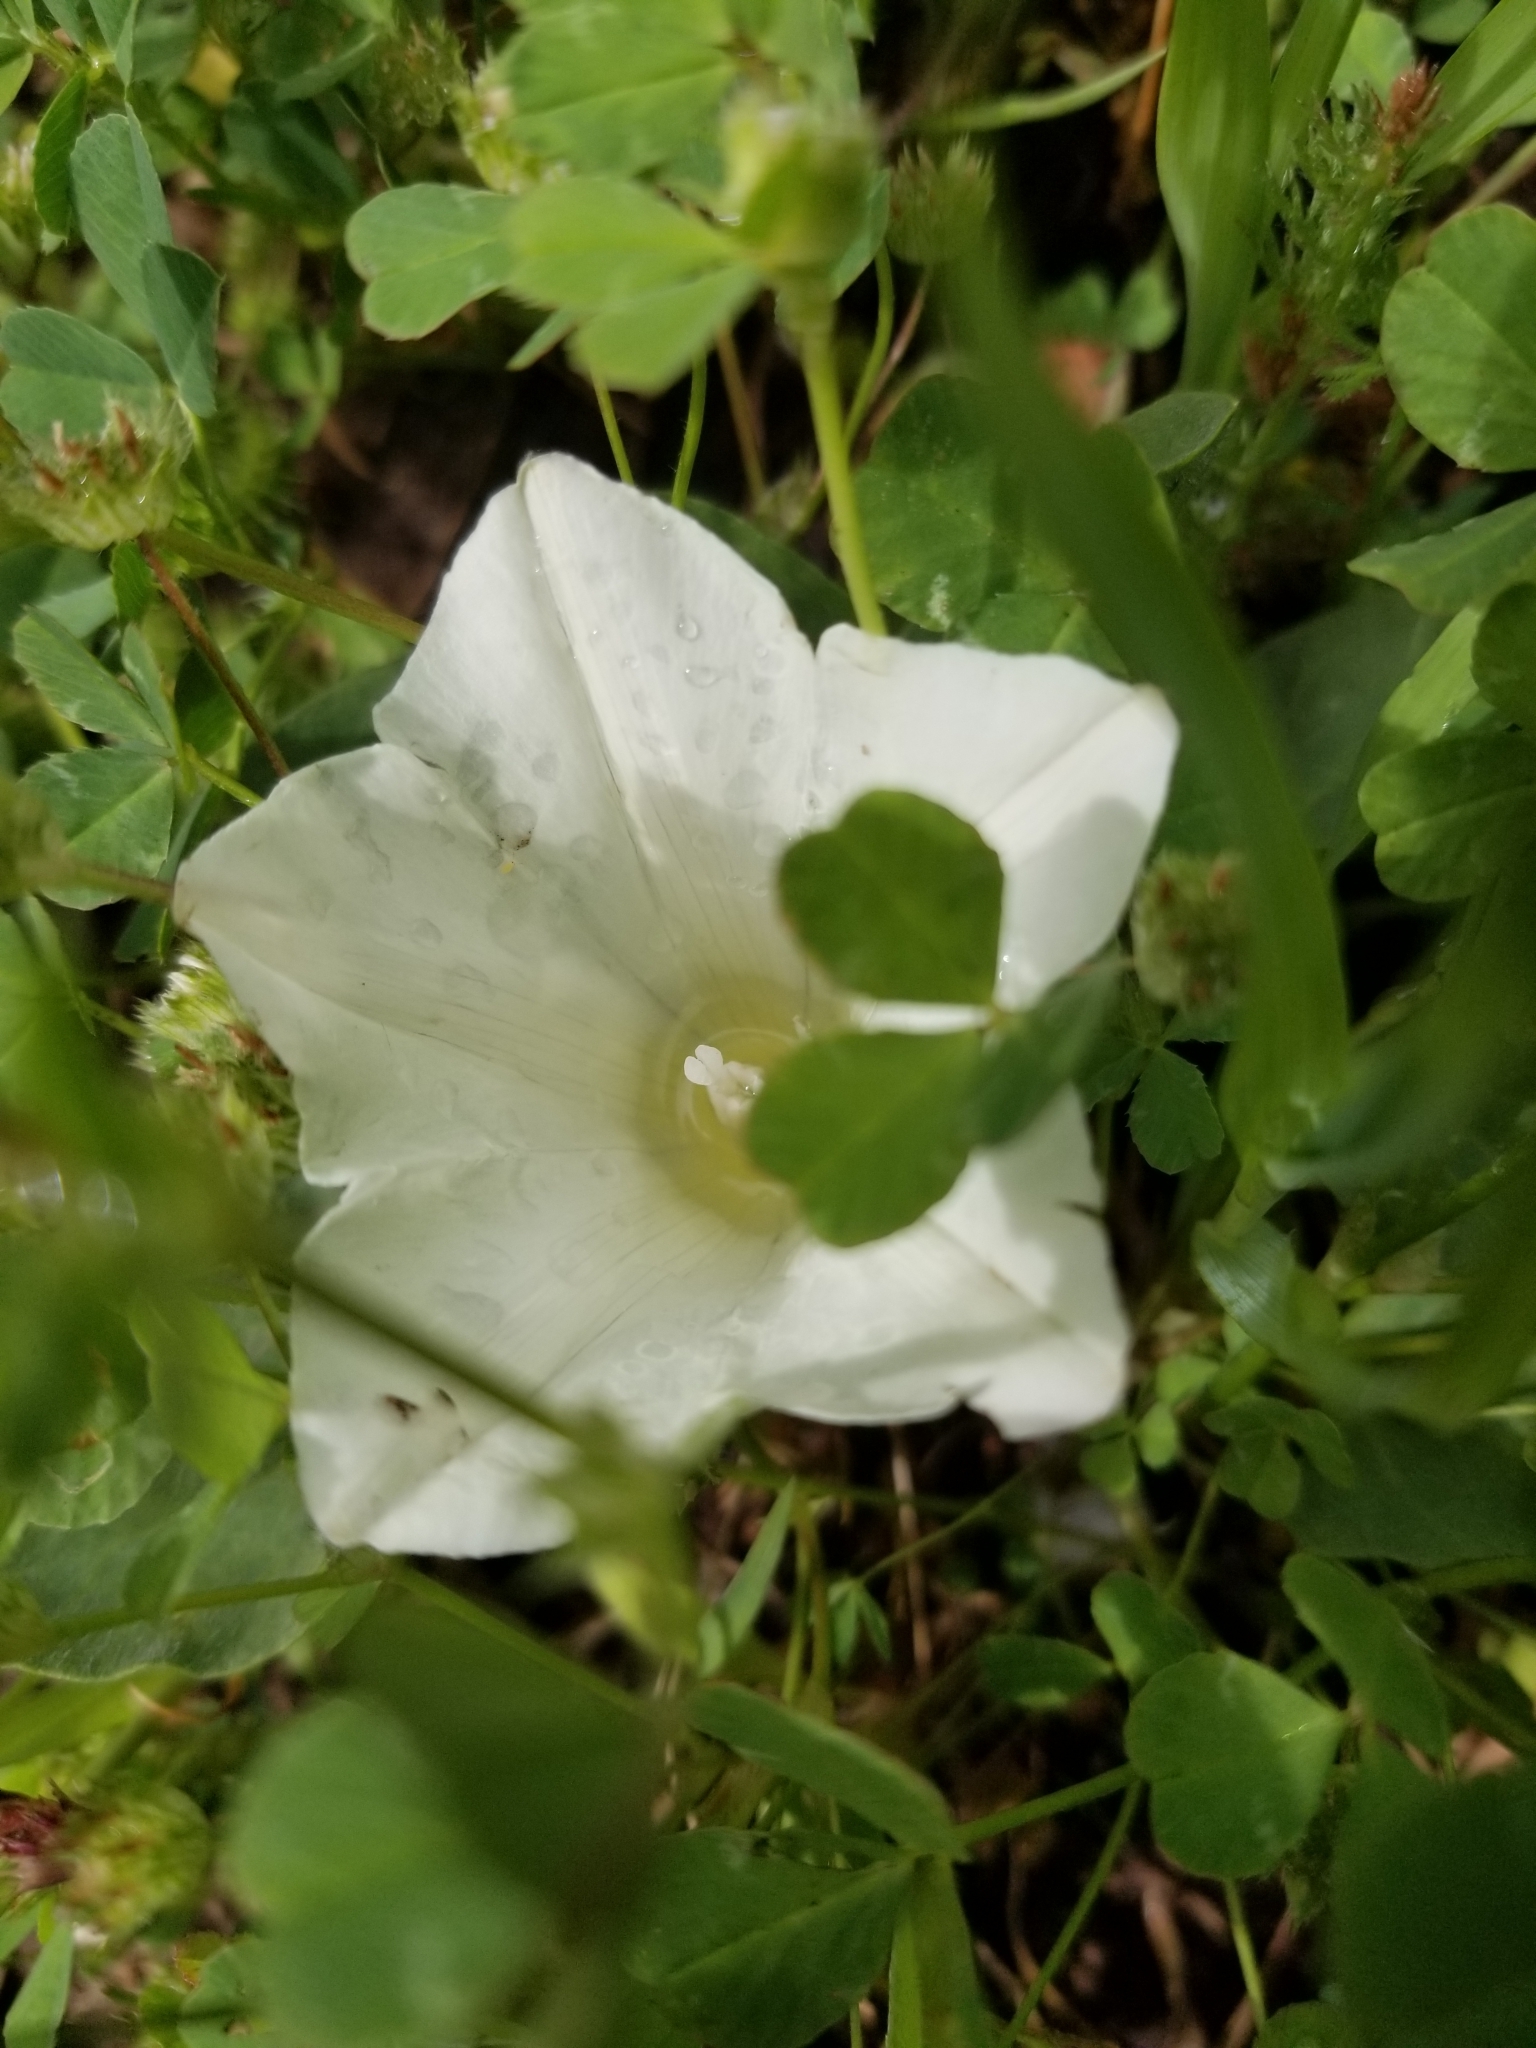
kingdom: Plantae
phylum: Tracheophyta
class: Magnoliopsida
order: Solanales
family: Convolvulaceae
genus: Calystegia
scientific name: Calystegia subacaulis
